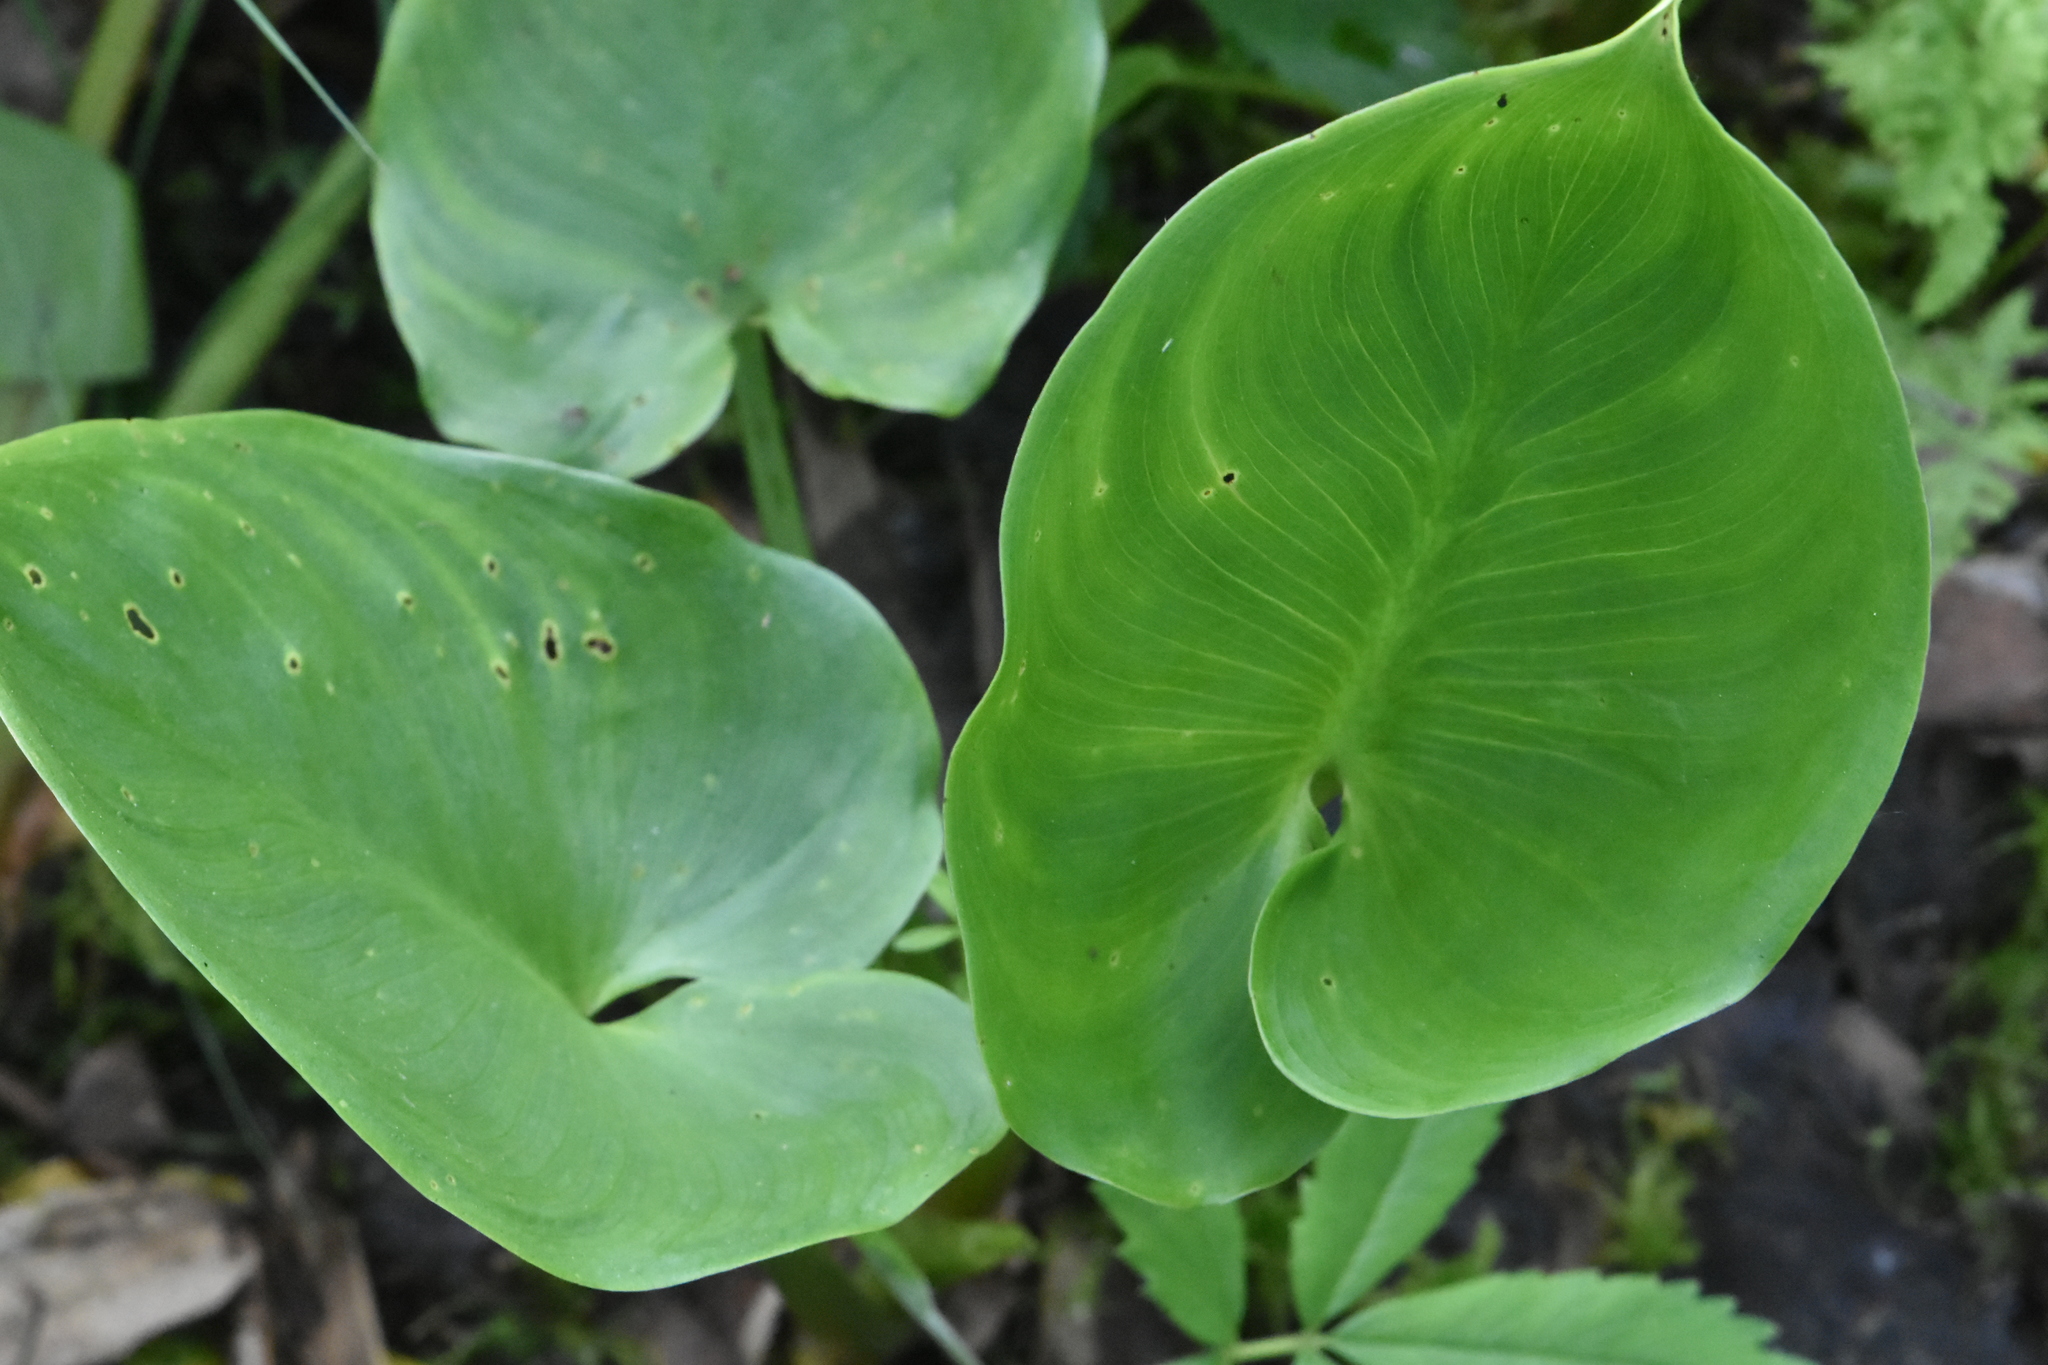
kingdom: Plantae
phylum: Tracheophyta
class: Liliopsida
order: Alismatales
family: Araceae
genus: Calla
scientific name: Calla palustris
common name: Bog arum
